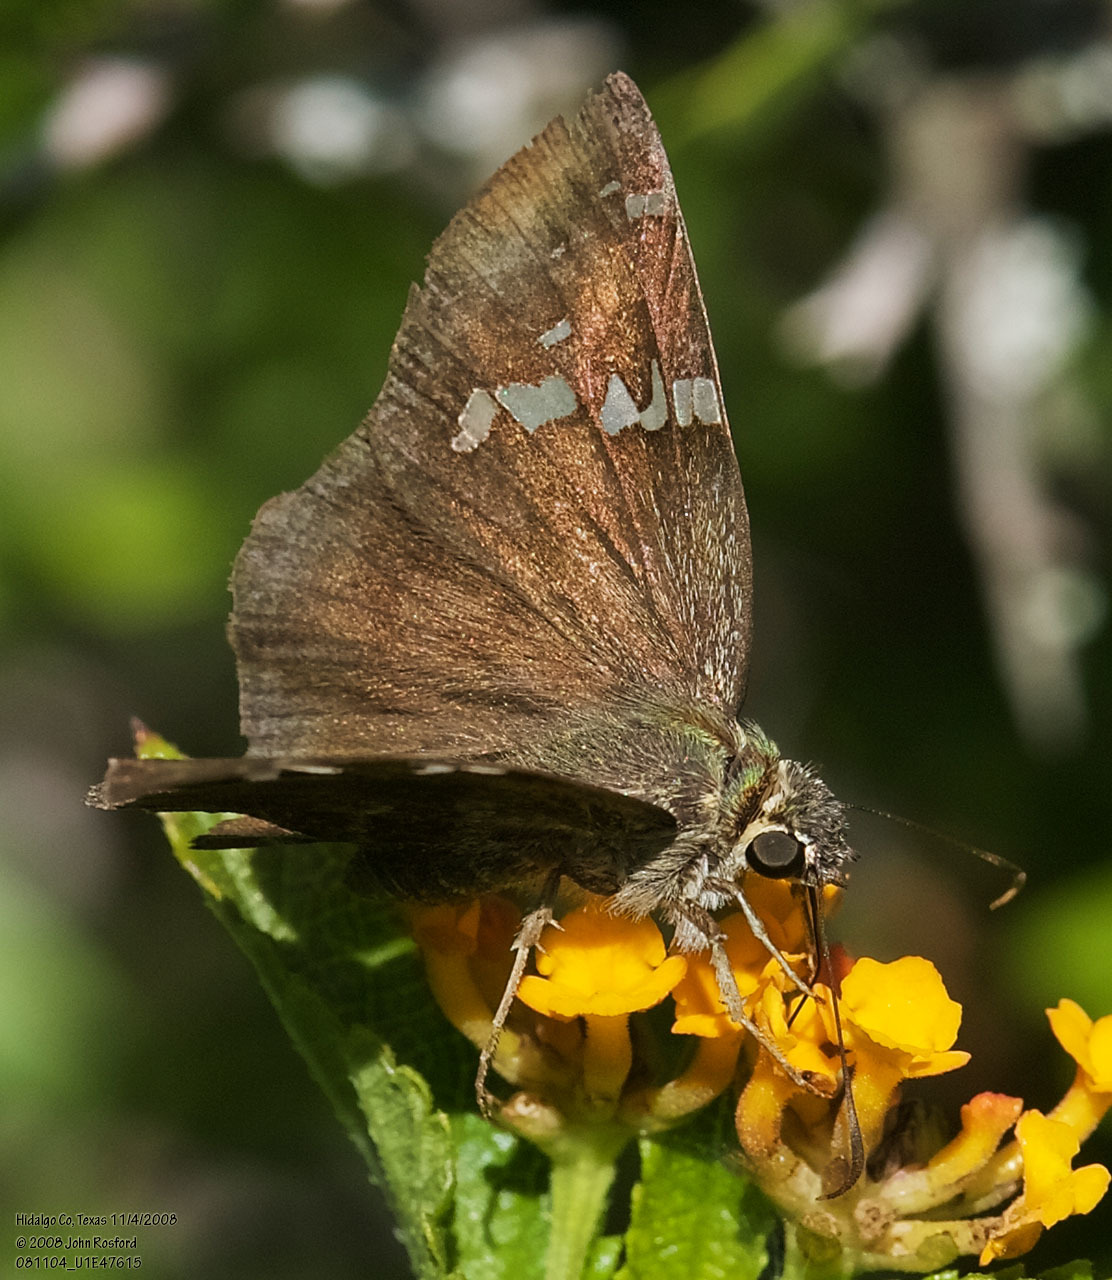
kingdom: Animalia
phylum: Arthropoda
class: Insecta
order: Lepidoptera
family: Hesperiidae
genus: Autochton
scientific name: Autochton potrillo
